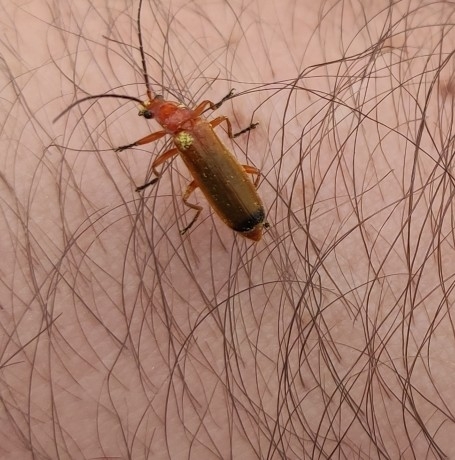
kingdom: Animalia
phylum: Arthropoda
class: Insecta
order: Coleoptera
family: Cantharidae
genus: Rhagonycha
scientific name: Rhagonycha fulva
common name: Common red soldier beetle
